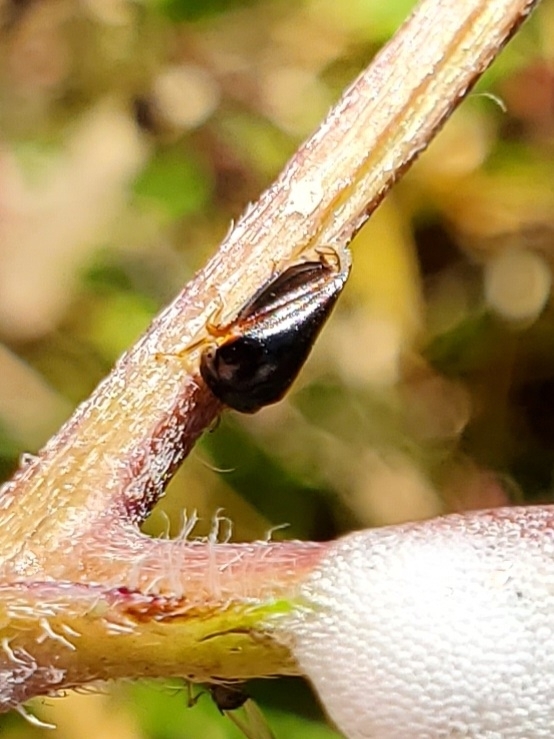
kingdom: Animalia
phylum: Arthropoda
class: Insecta
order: Hemiptera
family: Membracidae
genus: Acutalis
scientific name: Acutalis tartarea
